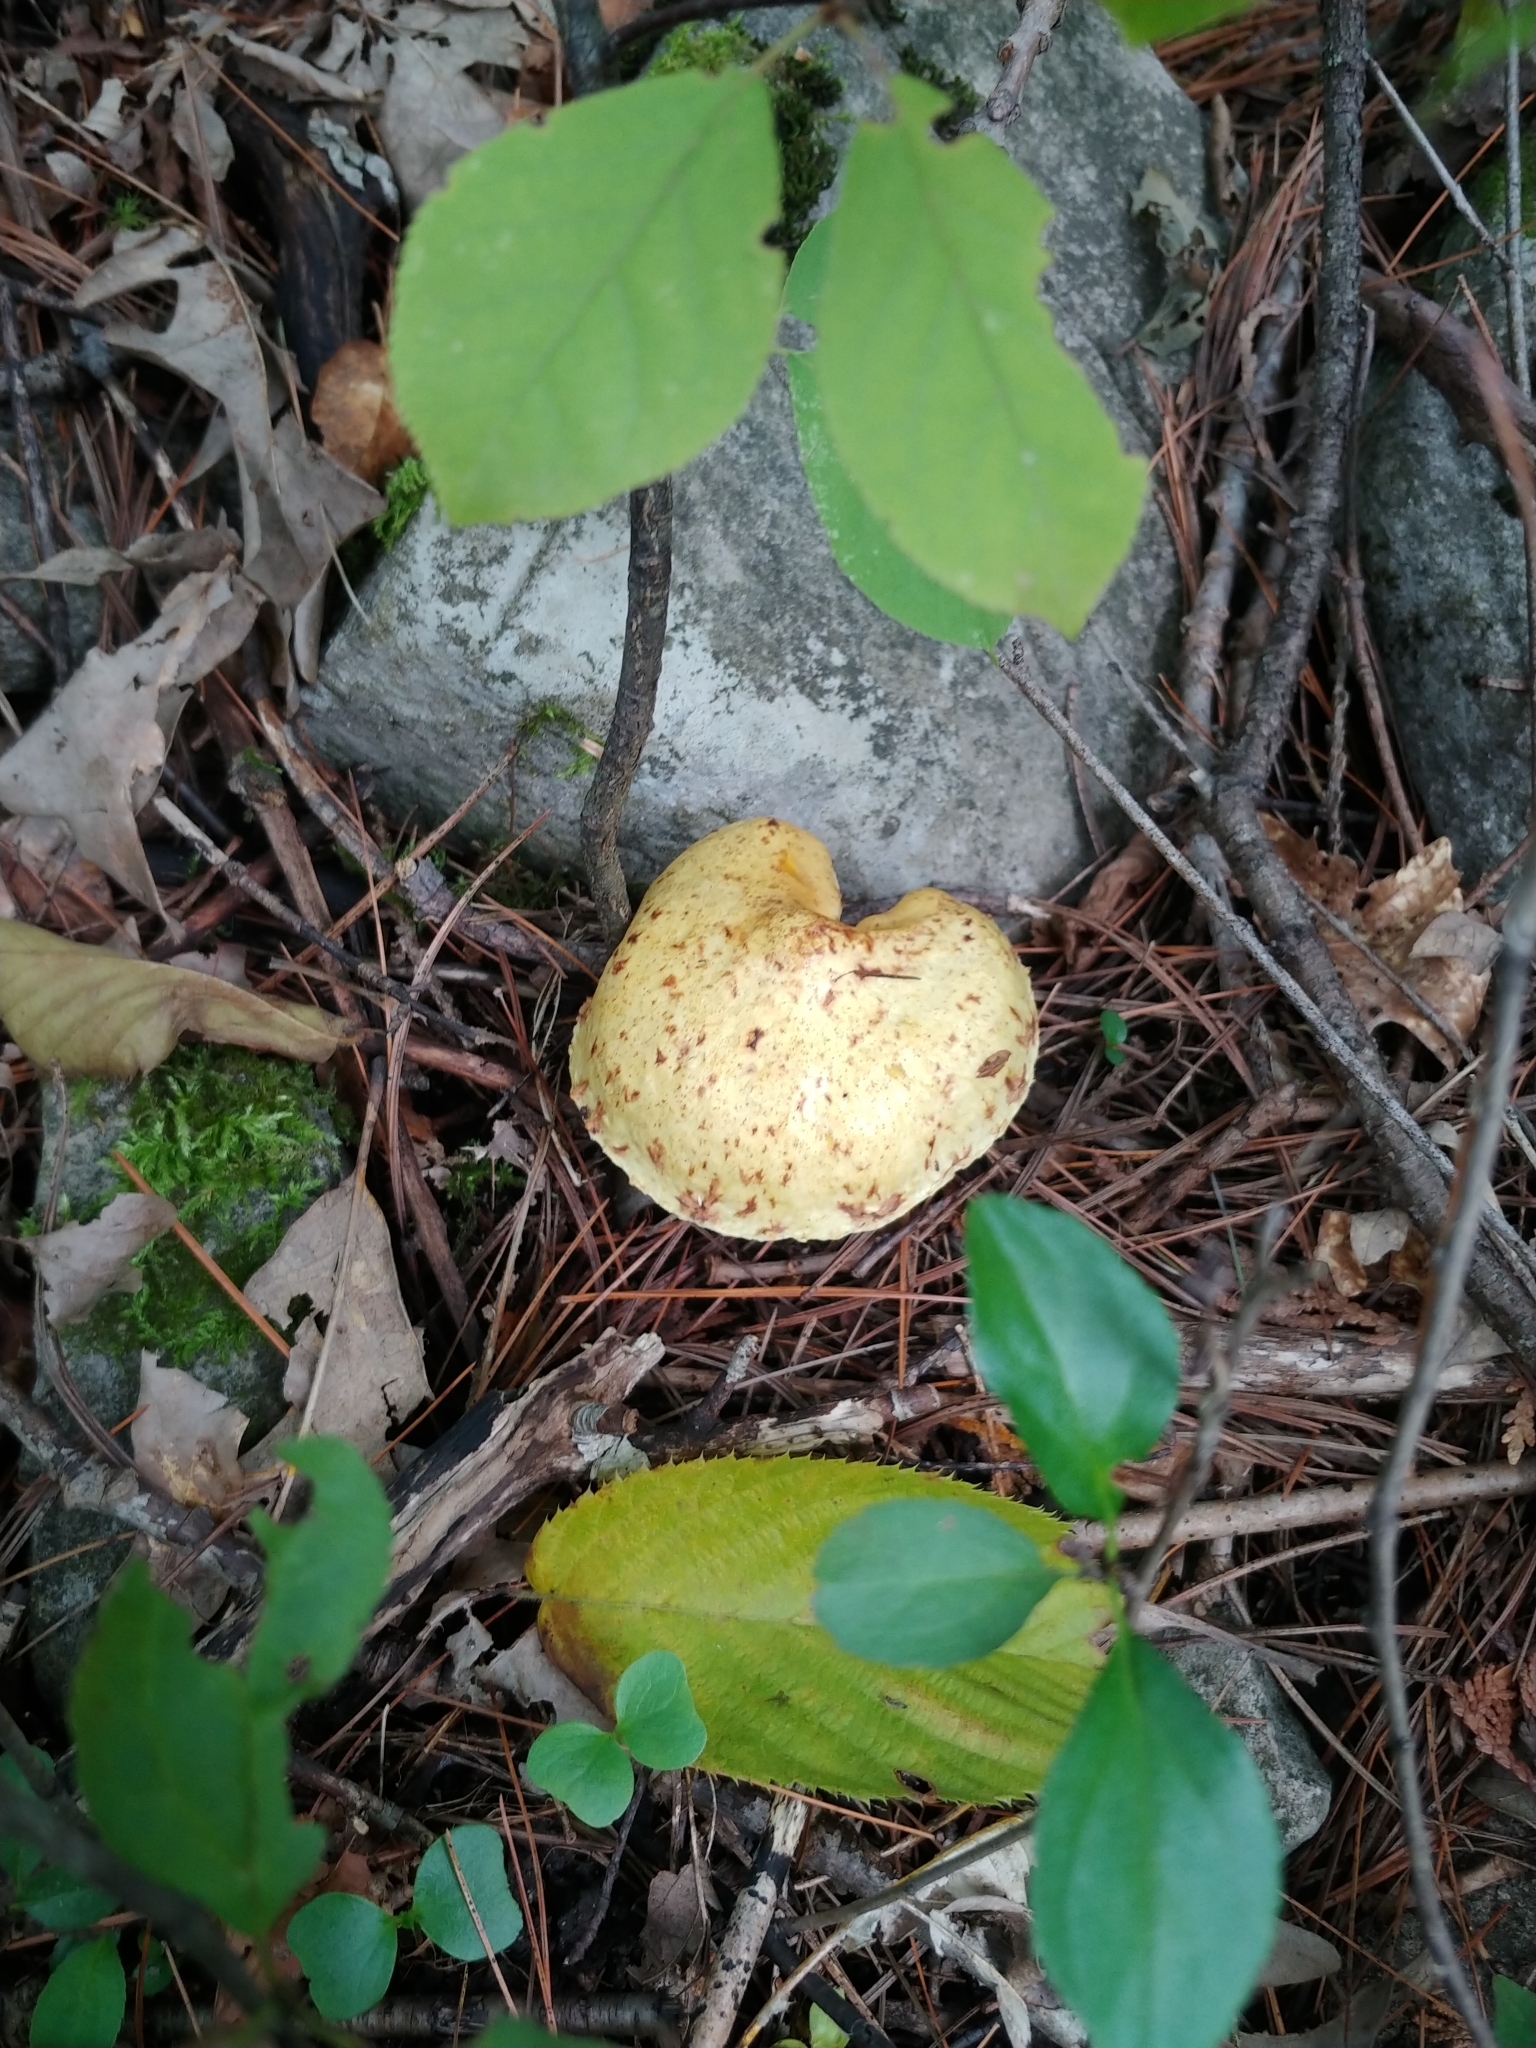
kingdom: Fungi
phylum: Basidiomycota
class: Agaricomycetes
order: Boletales
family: Suillaceae
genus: Suillus
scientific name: Suillus americanus
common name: Chicken fat mushroom
